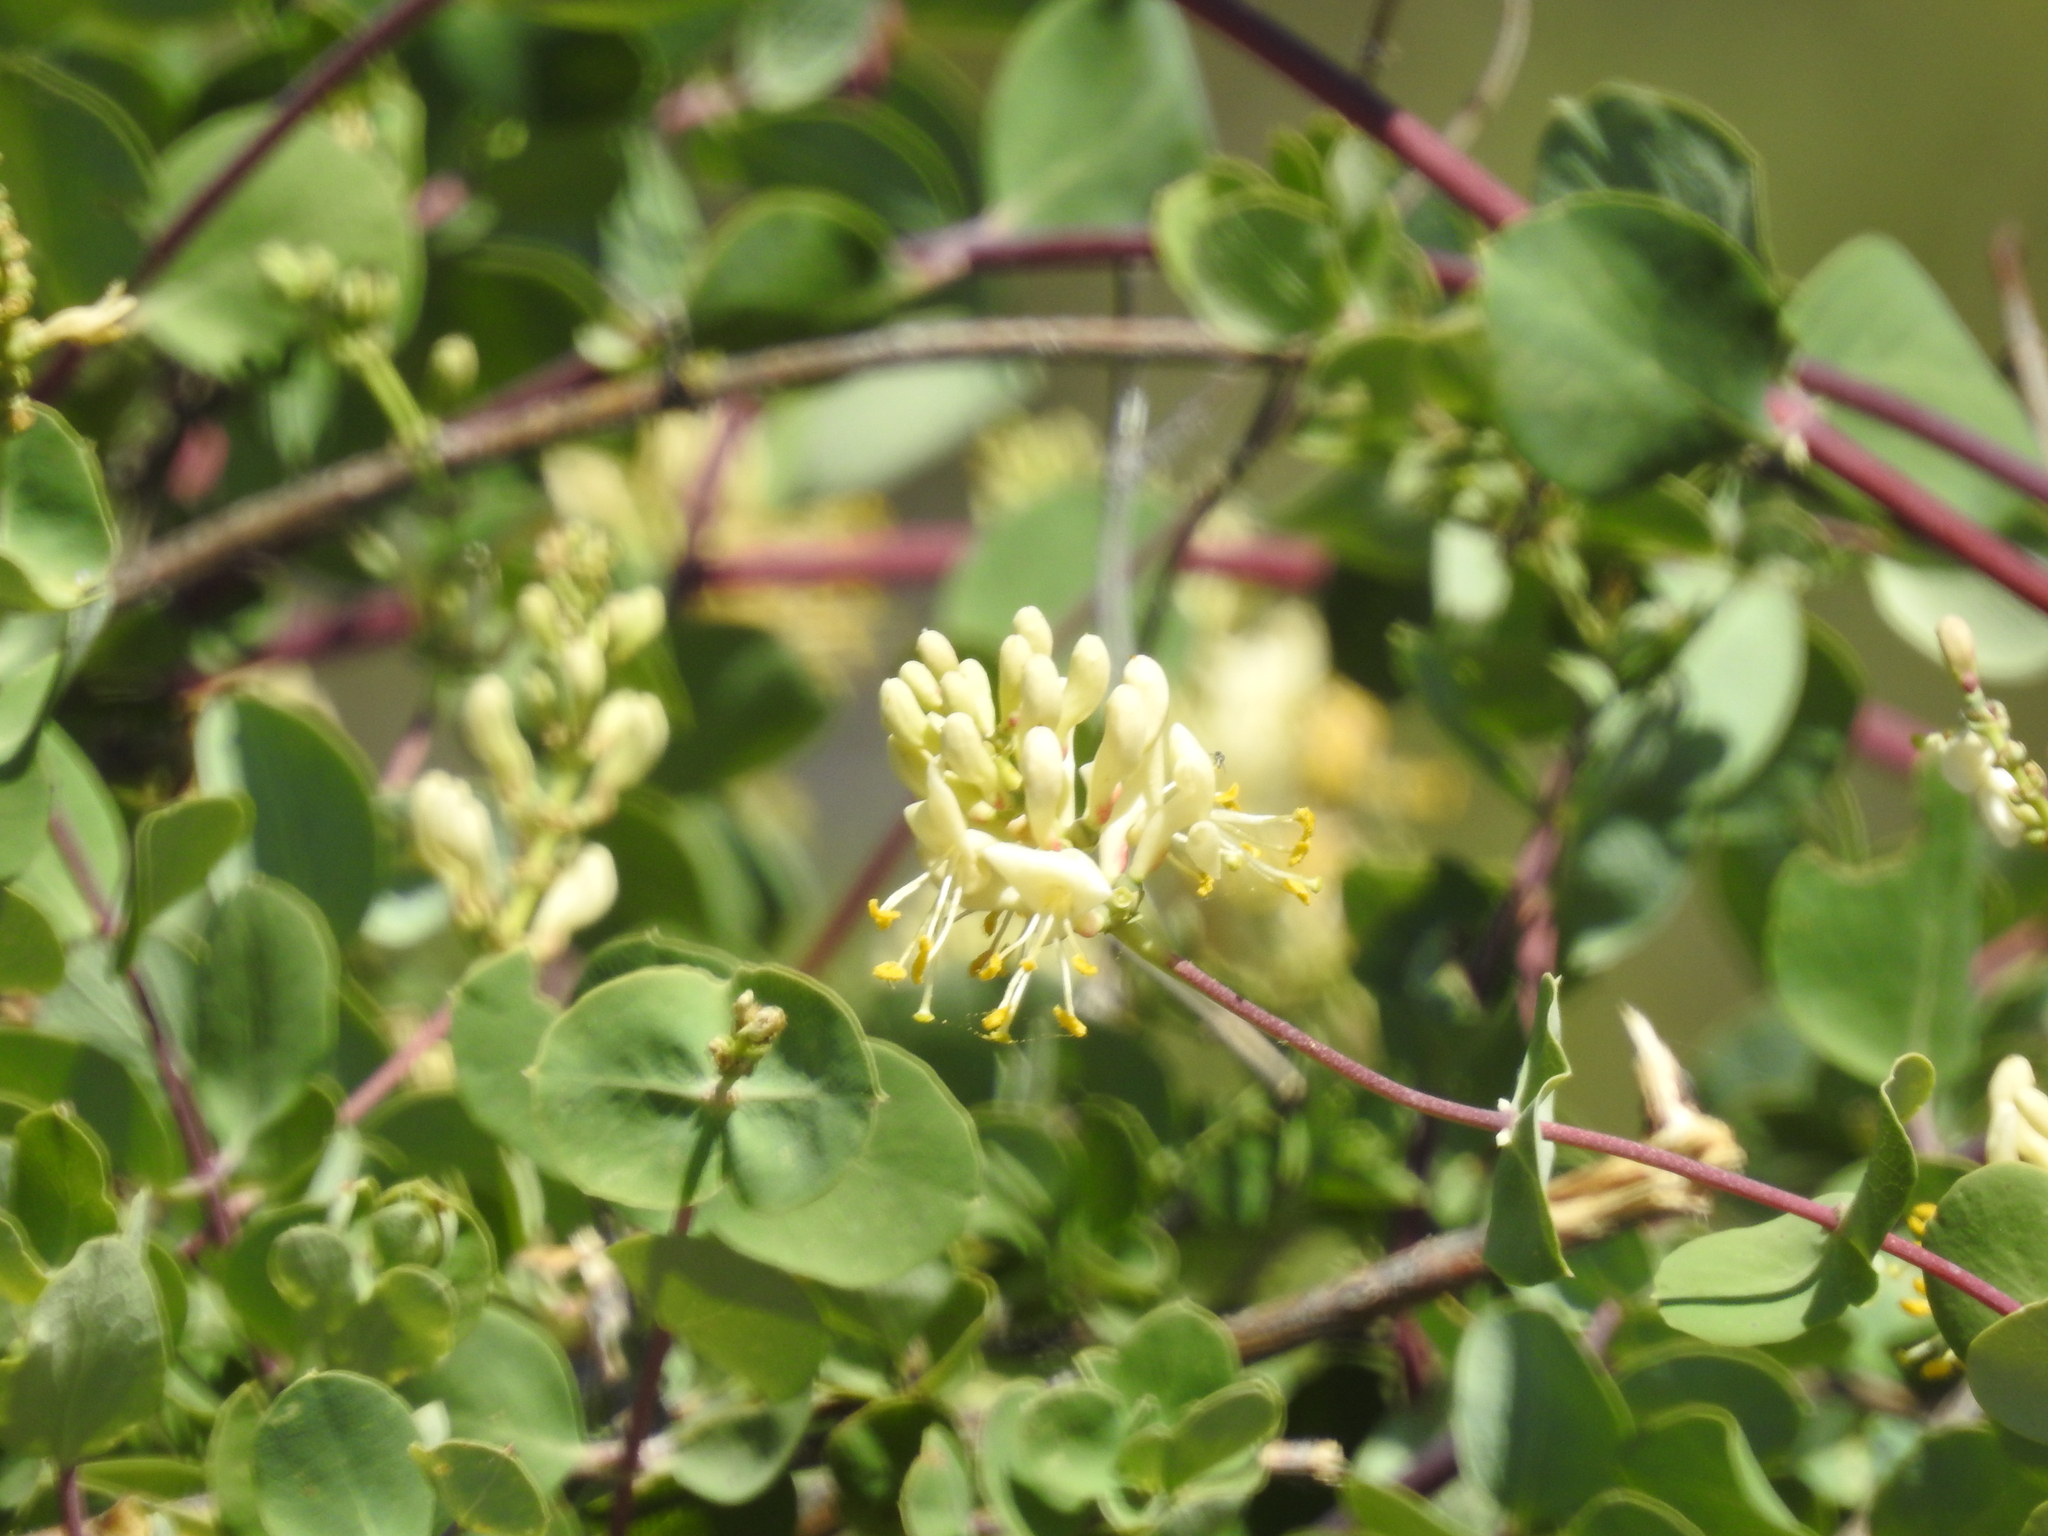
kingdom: Plantae
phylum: Tracheophyta
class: Magnoliopsida
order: Dipsacales
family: Caprifoliaceae
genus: Lonicera
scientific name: Lonicera interrupta
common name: Chaparral honeysuckle
